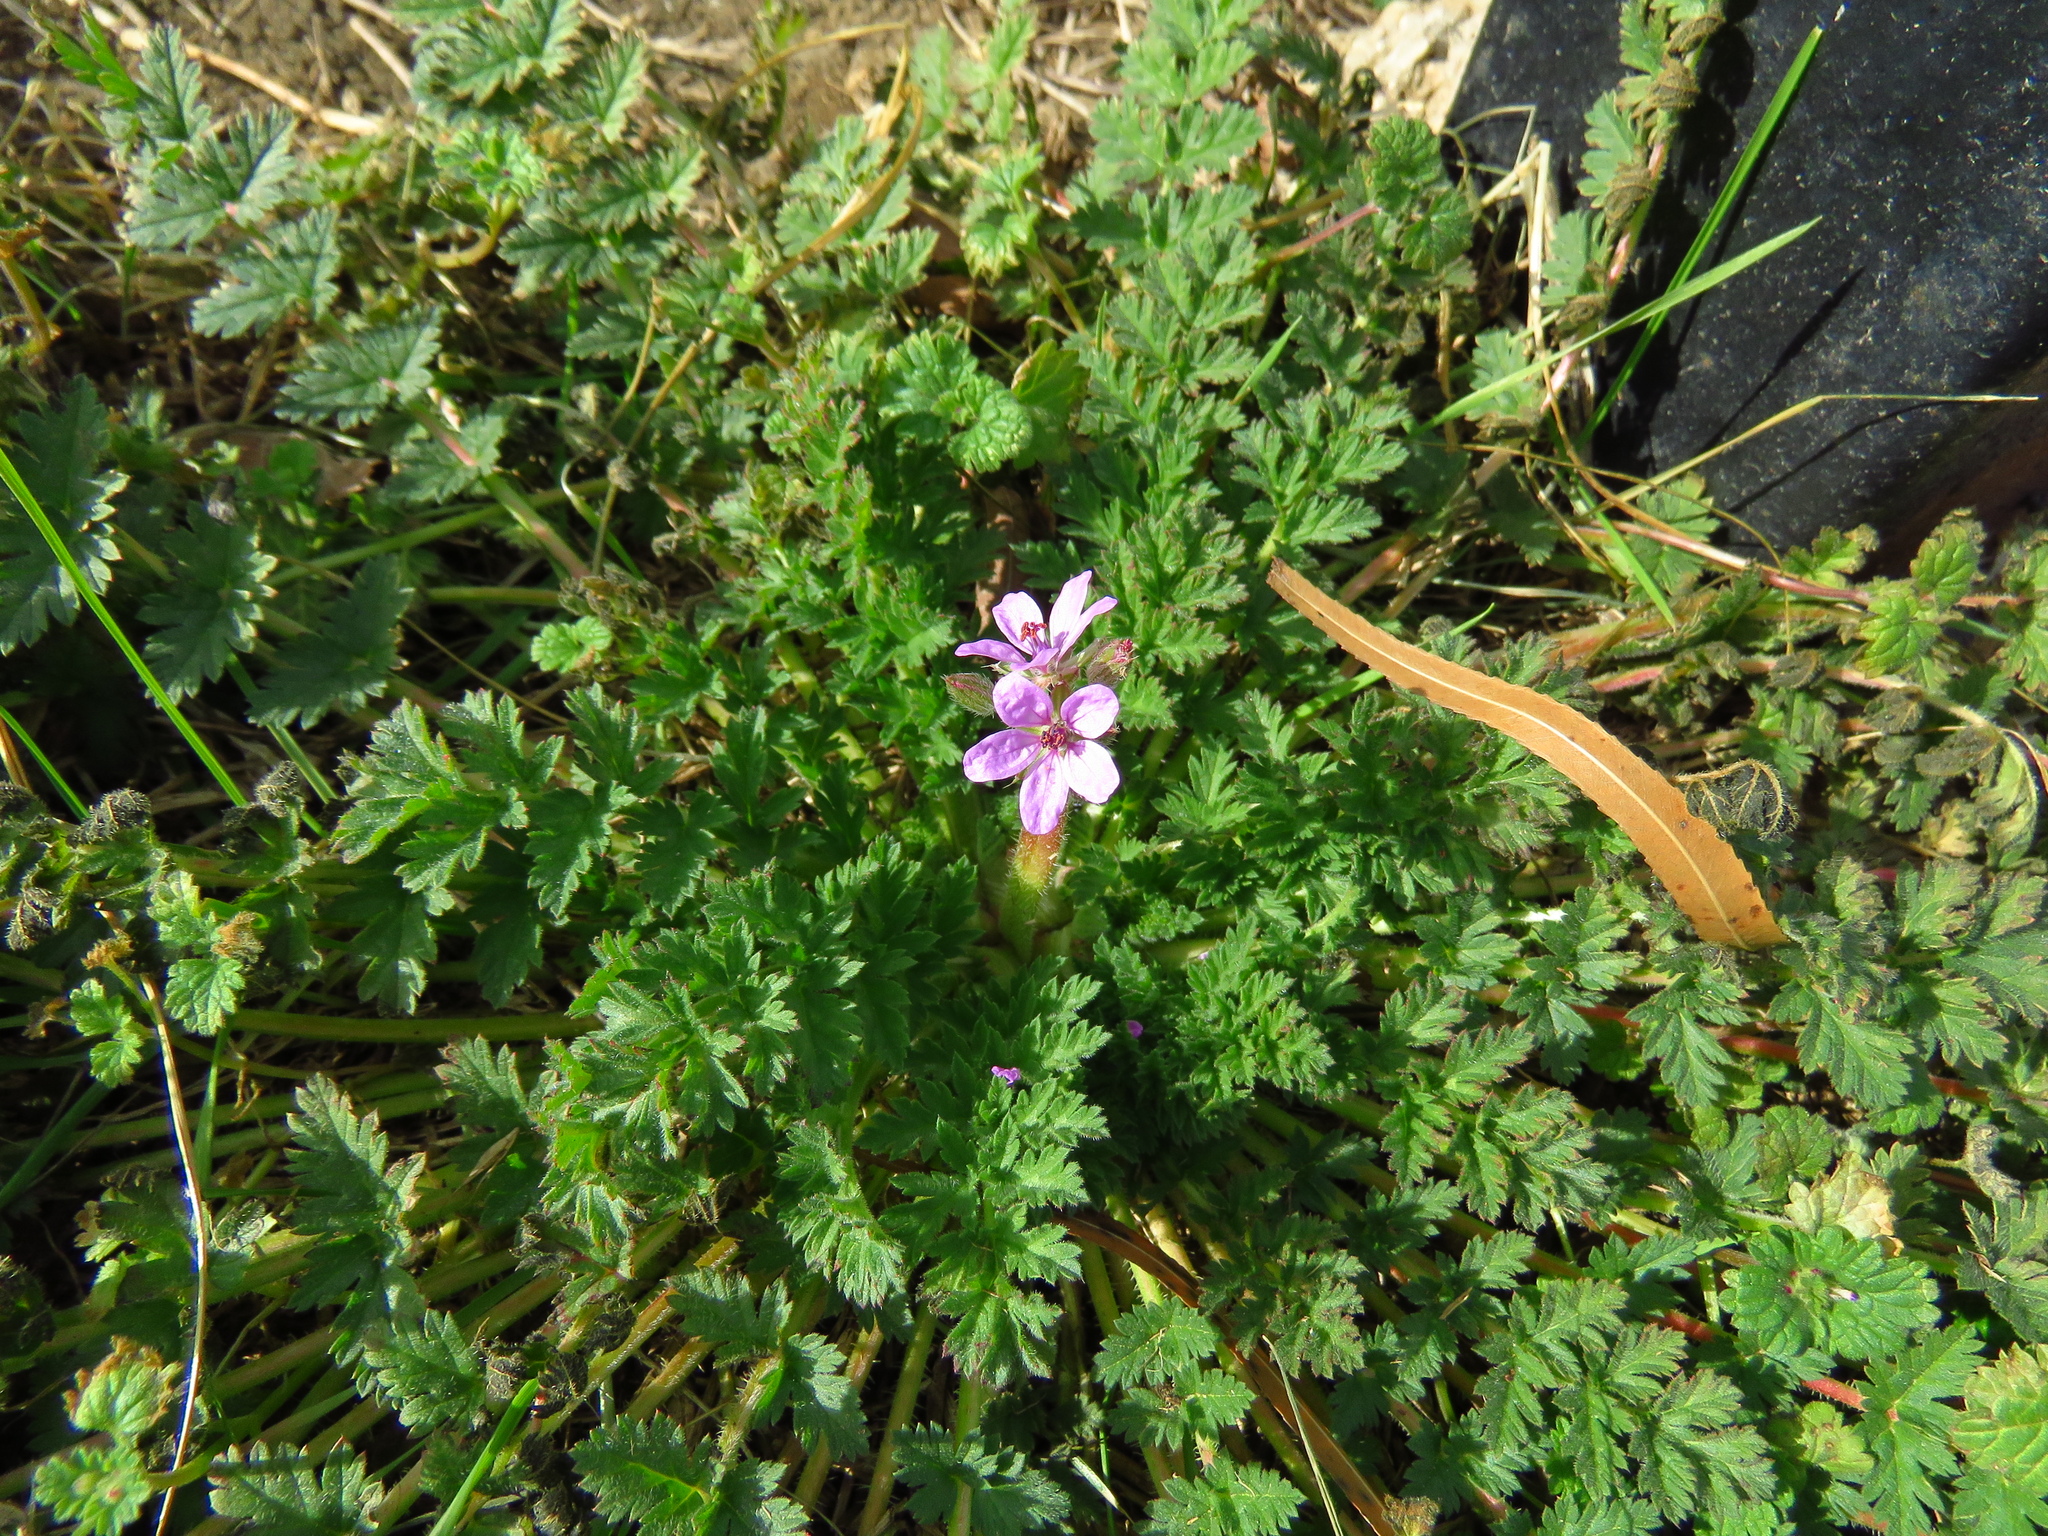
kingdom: Plantae
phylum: Tracheophyta
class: Magnoliopsida
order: Geraniales
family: Geraniaceae
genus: Erodium
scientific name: Erodium cicutarium
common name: Common stork's-bill
